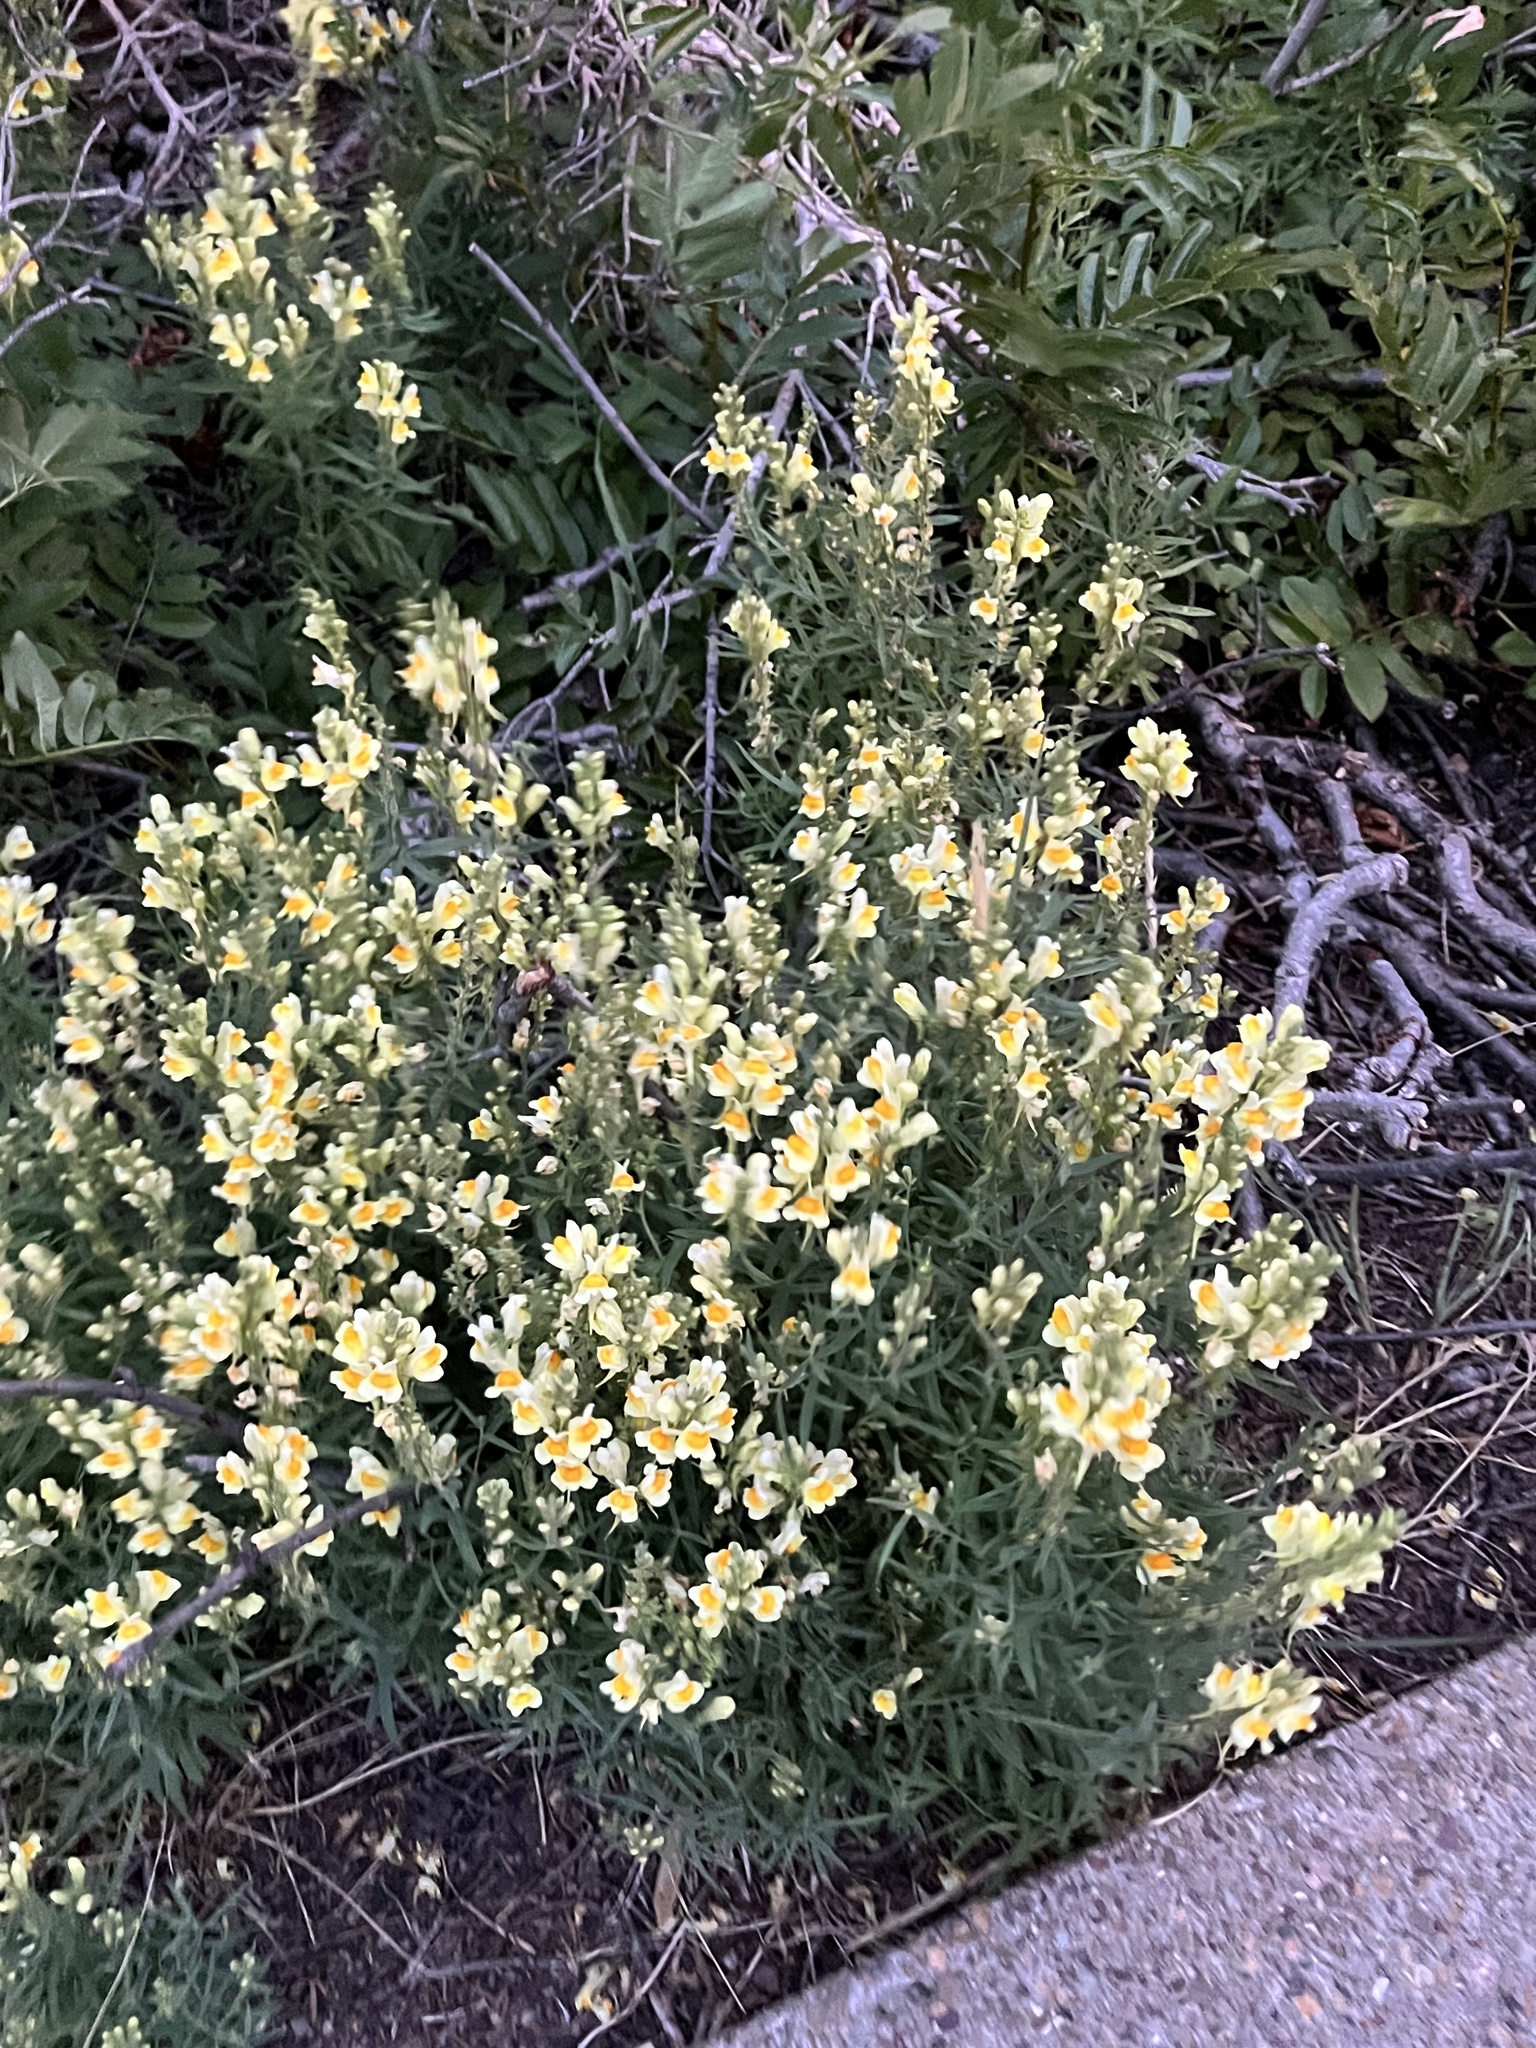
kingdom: Plantae
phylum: Tracheophyta
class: Magnoliopsida
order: Lamiales
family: Plantaginaceae
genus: Linaria
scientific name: Linaria vulgaris
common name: Butter and eggs
